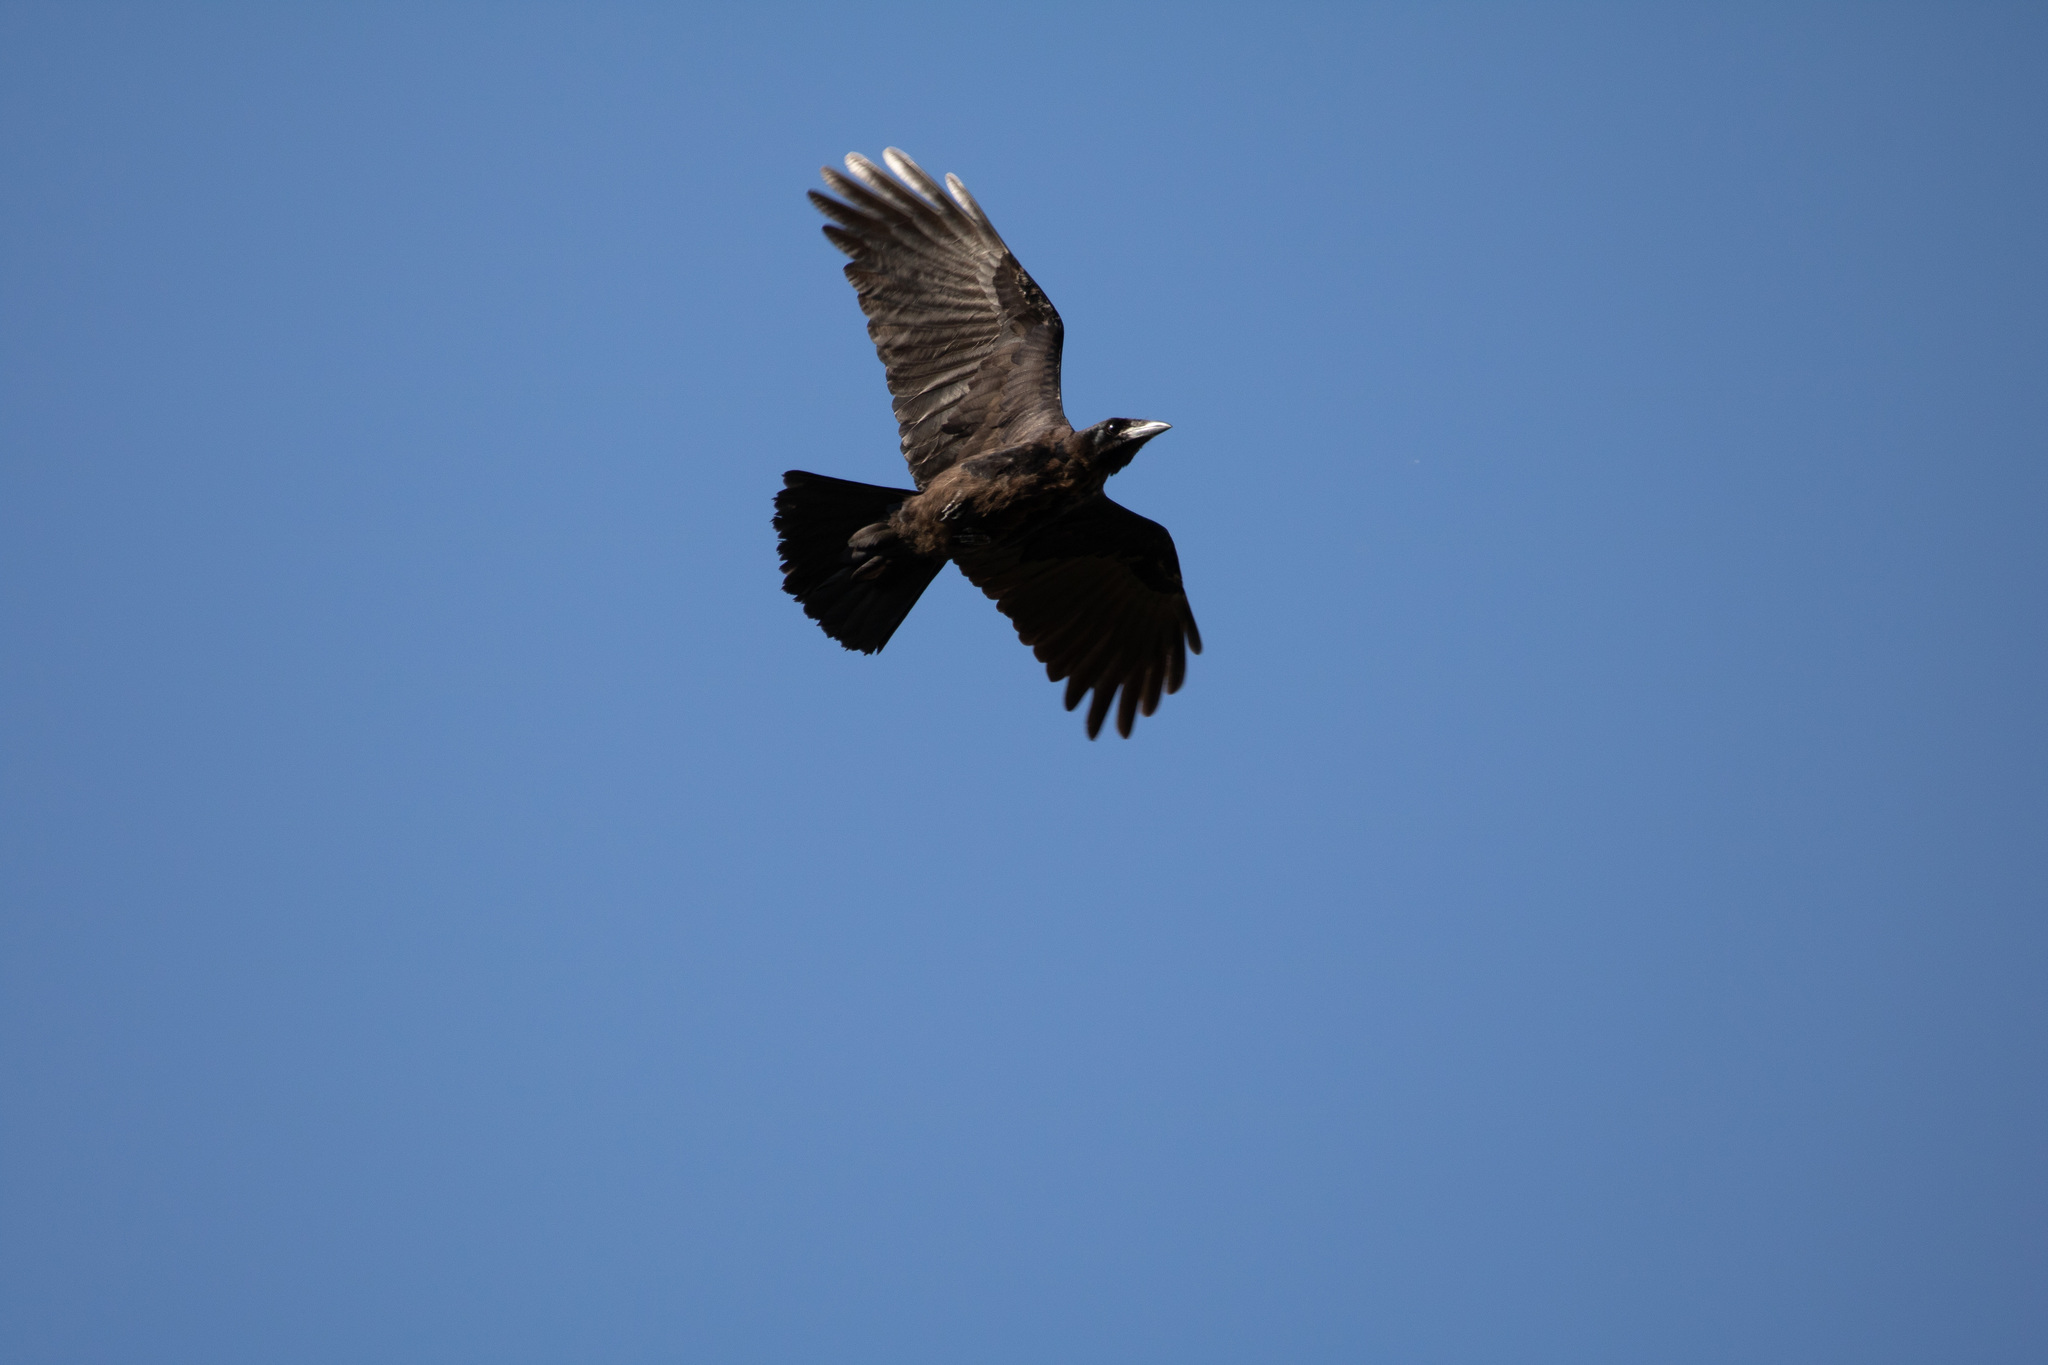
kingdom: Animalia
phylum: Chordata
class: Aves
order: Passeriformes
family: Corvidae
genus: Corvus
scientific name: Corvus frugilegus
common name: Rook
